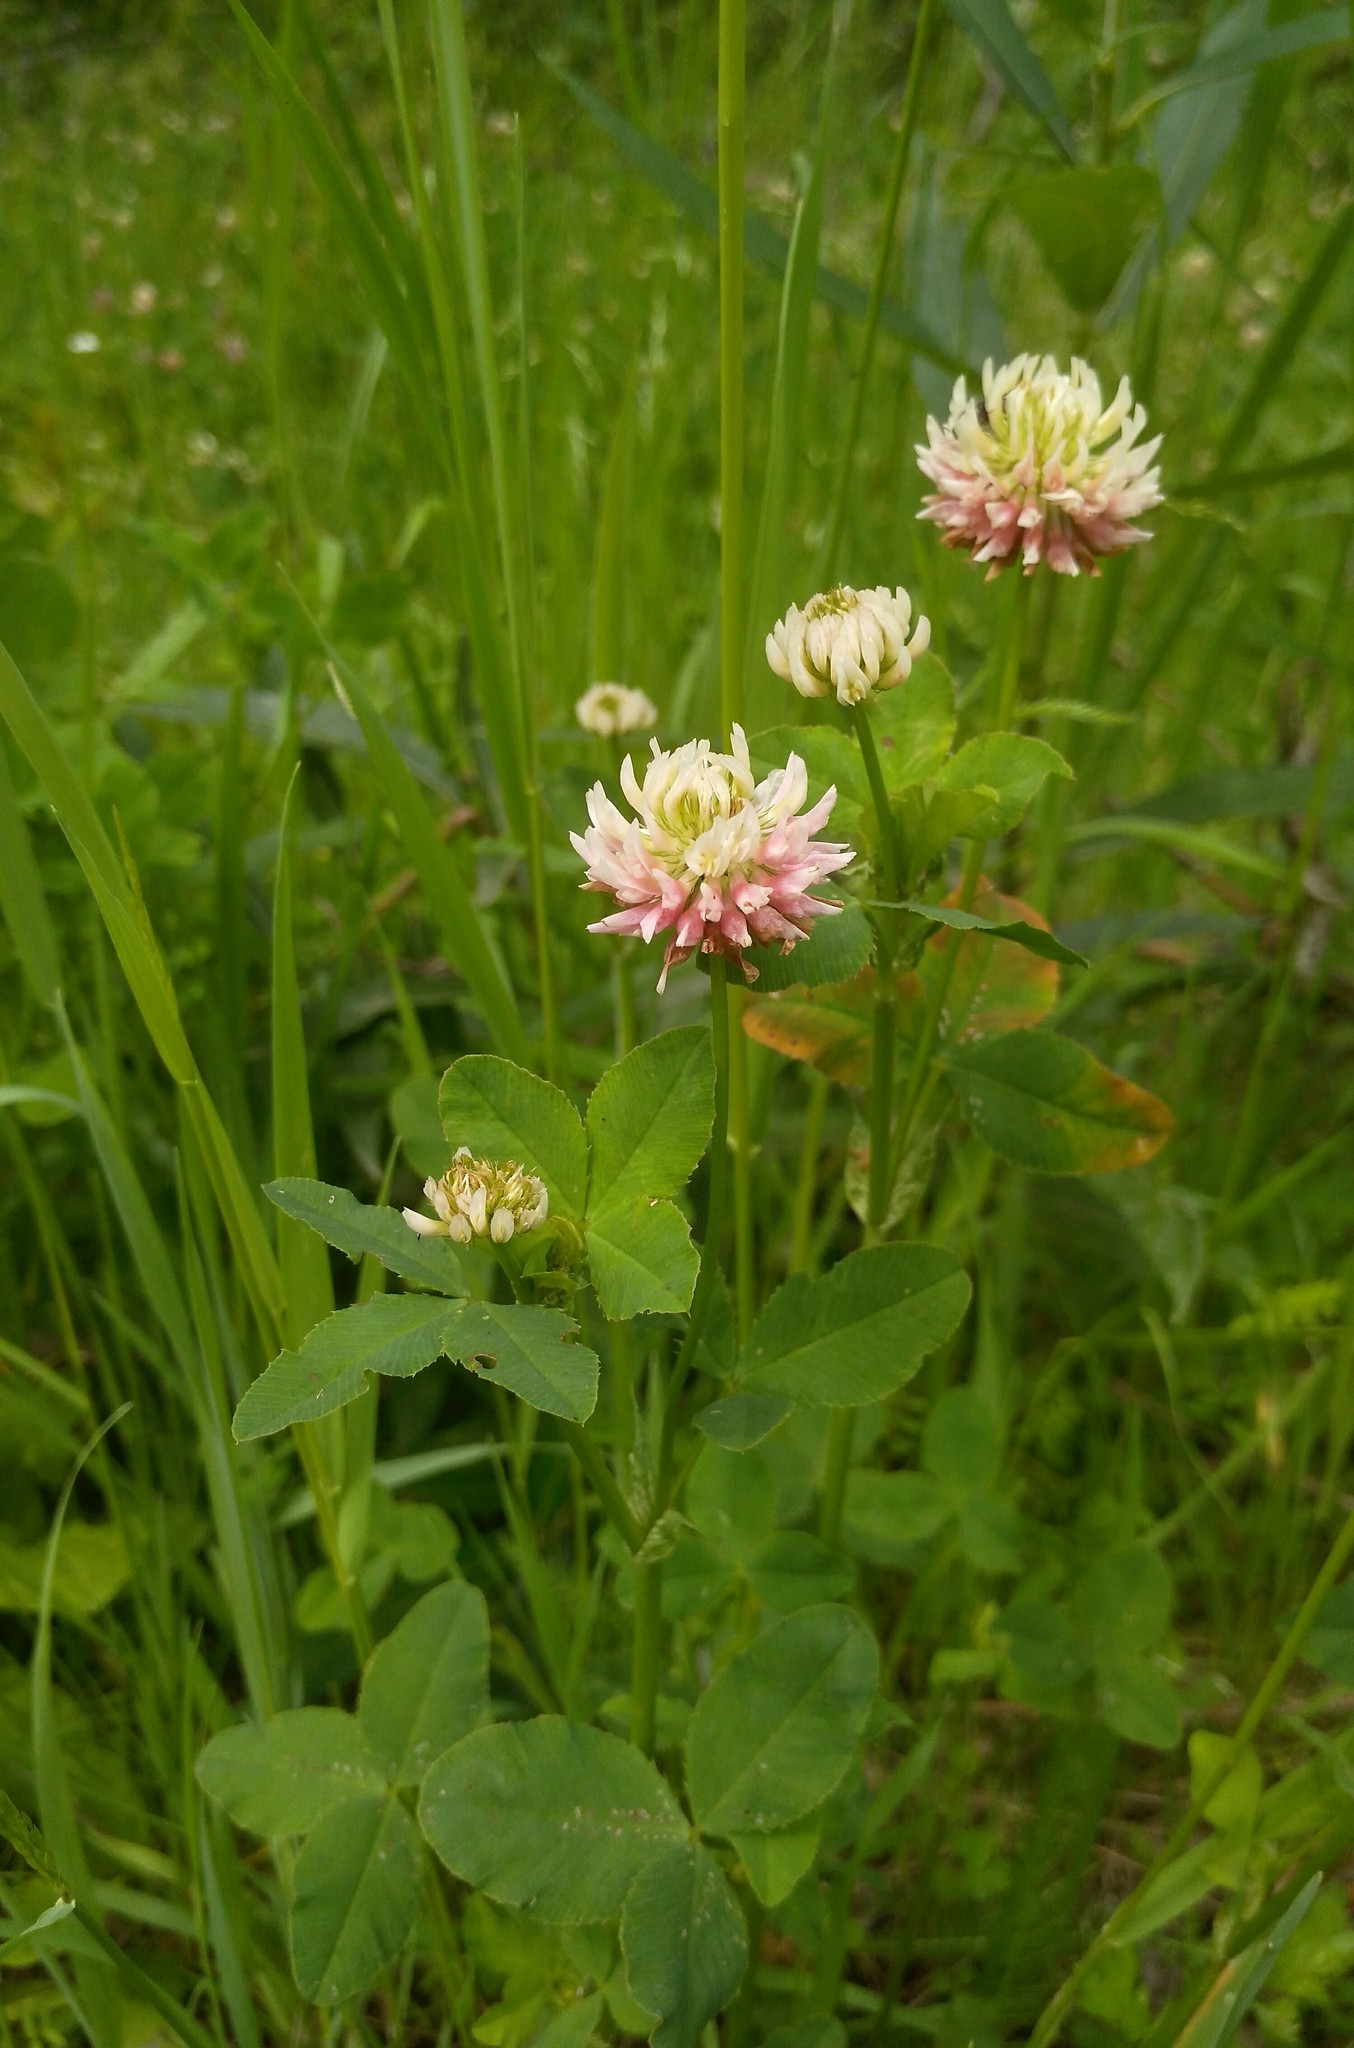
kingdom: Plantae
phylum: Tracheophyta
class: Magnoliopsida
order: Fabales
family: Fabaceae
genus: Trifolium
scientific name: Trifolium hybridum
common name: Alsike clover
